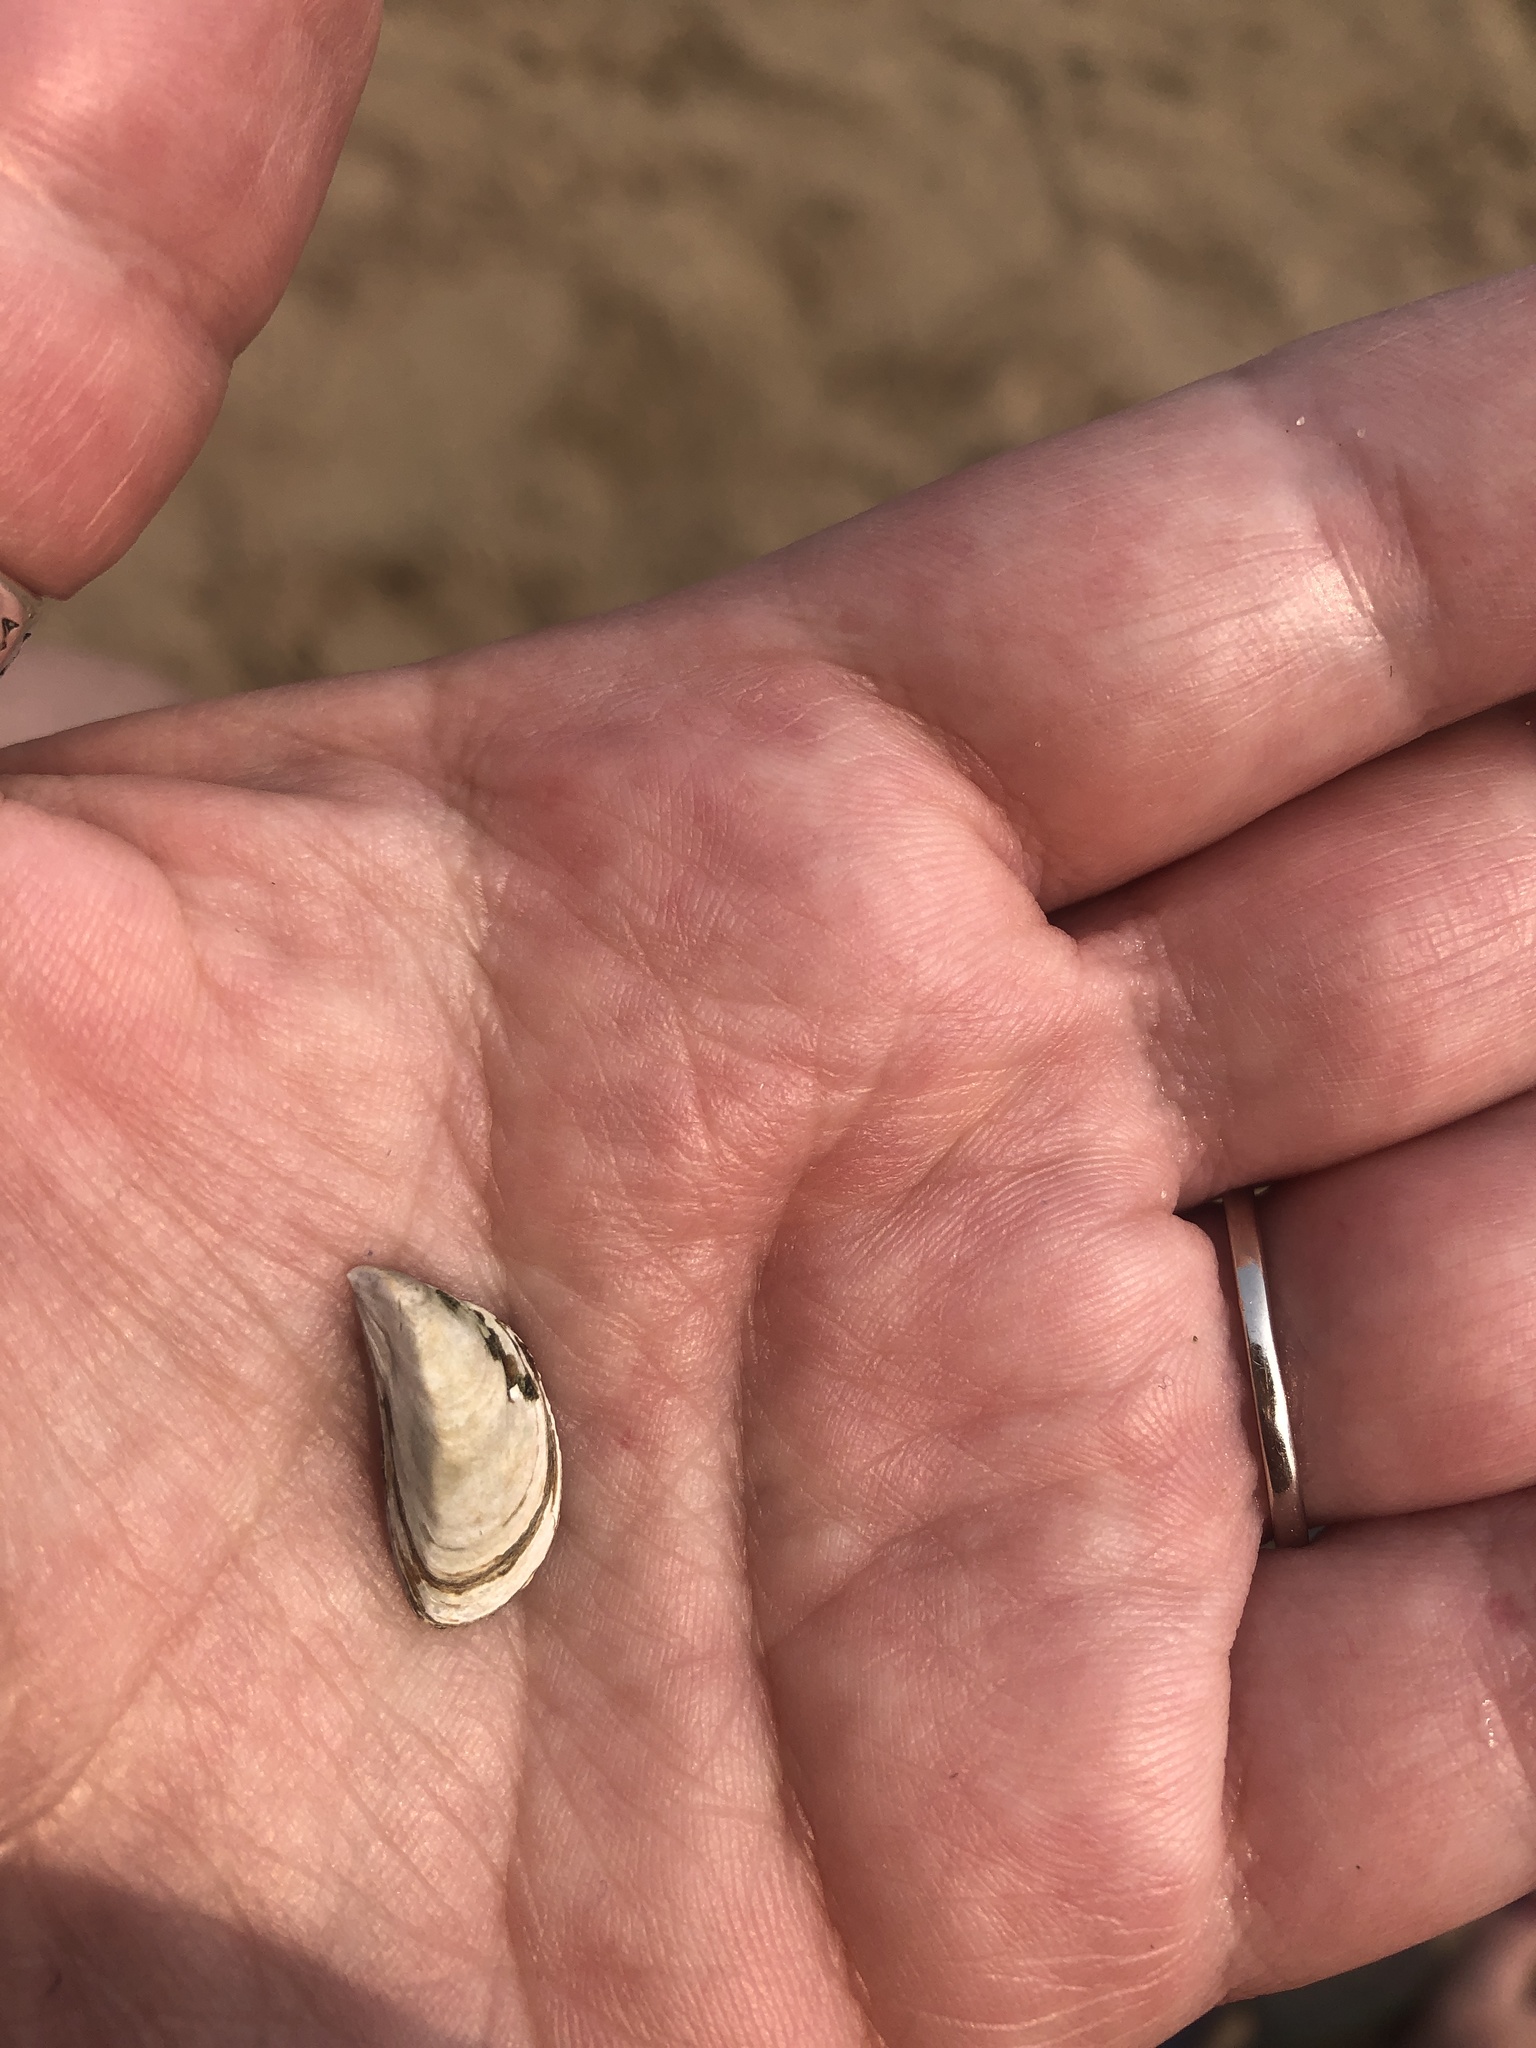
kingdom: Animalia
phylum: Mollusca
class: Bivalvia
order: Myida
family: Dreissenidae
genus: Dreissena
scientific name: Dreissena polymorpha
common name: Zebra mussel
